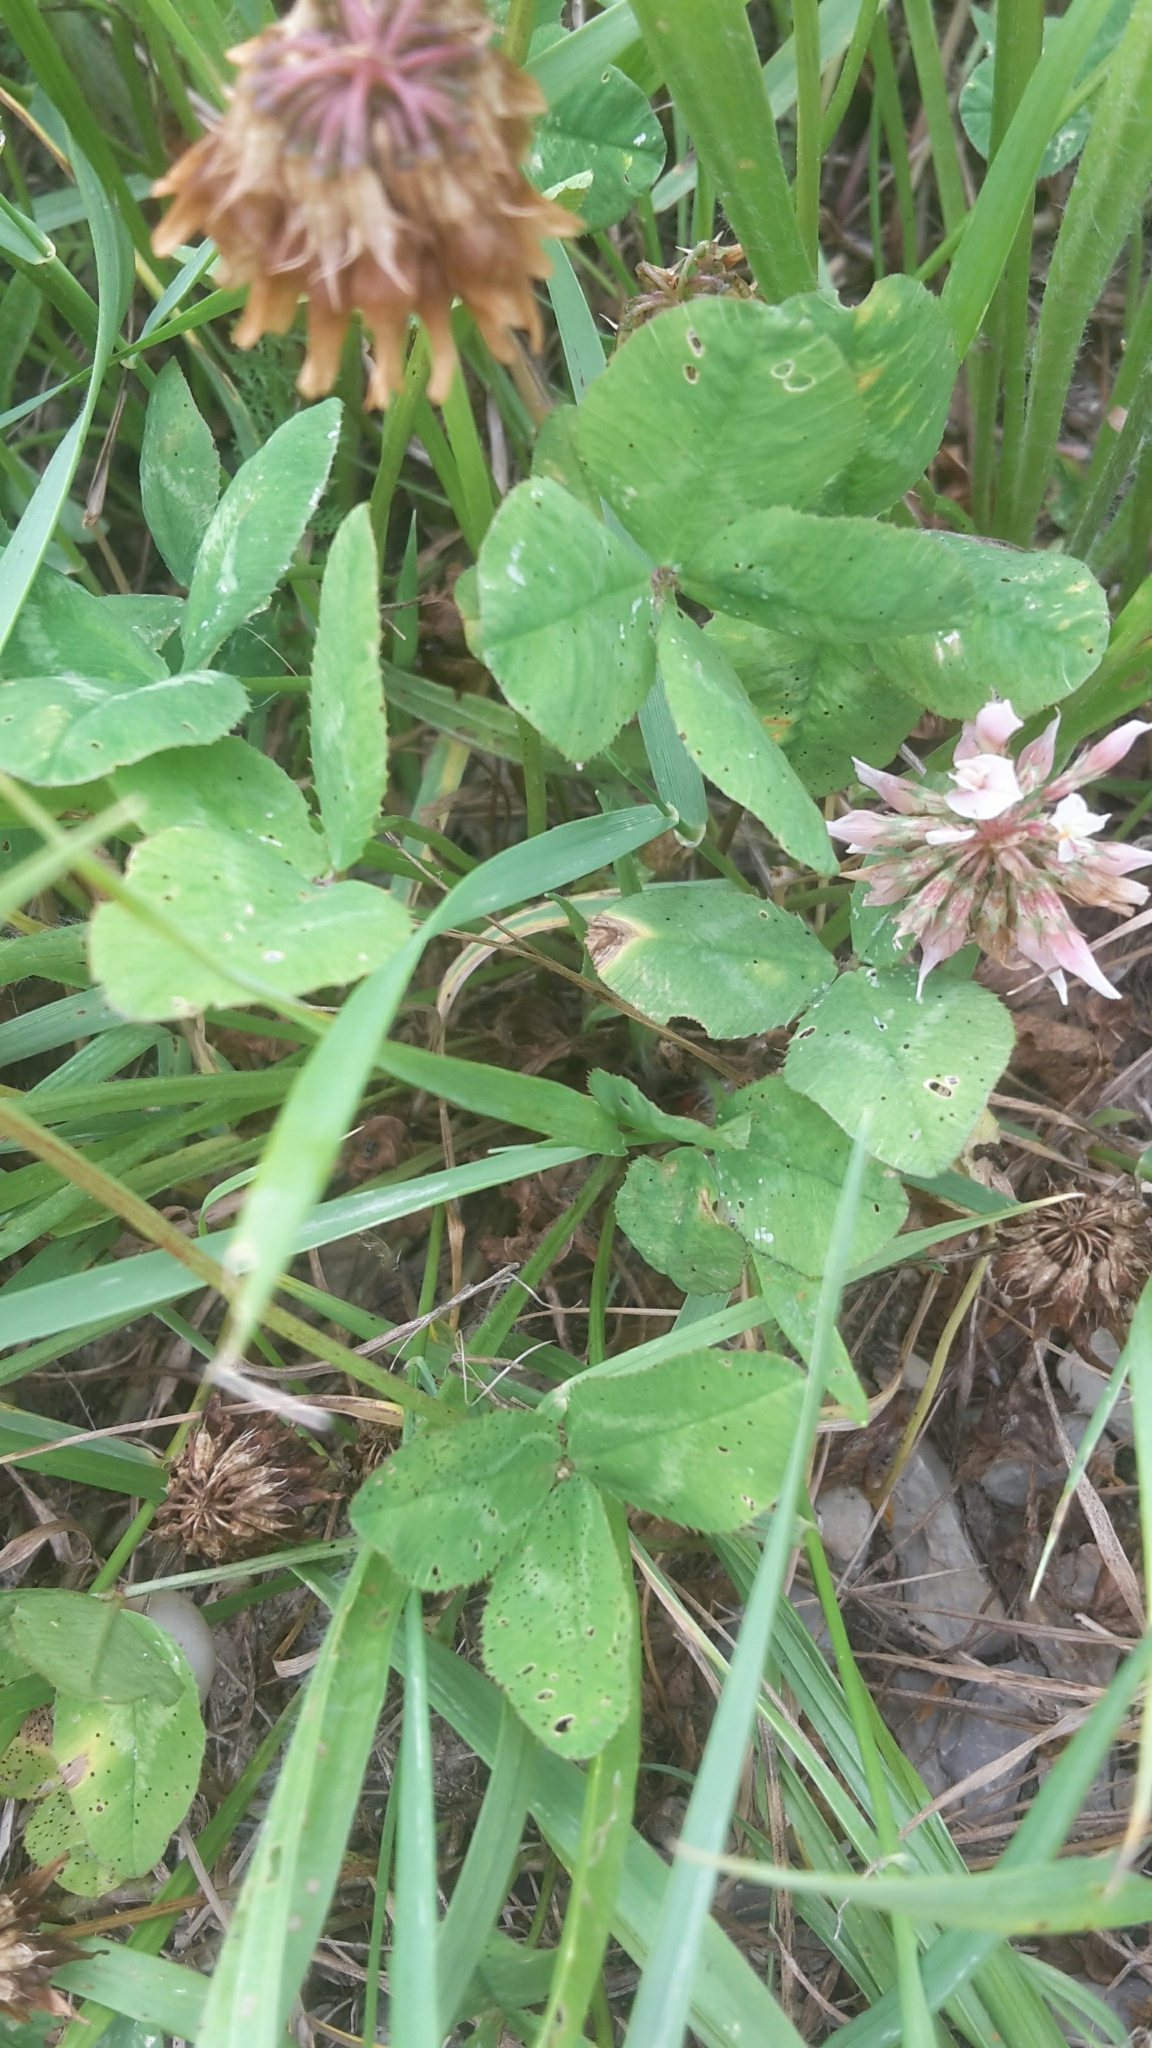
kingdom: Plantae
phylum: Tracheophyta
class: Magnoliopsida
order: Fabales
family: Fabaceae
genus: Trifolium
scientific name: Trifolium repens
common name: White clover
